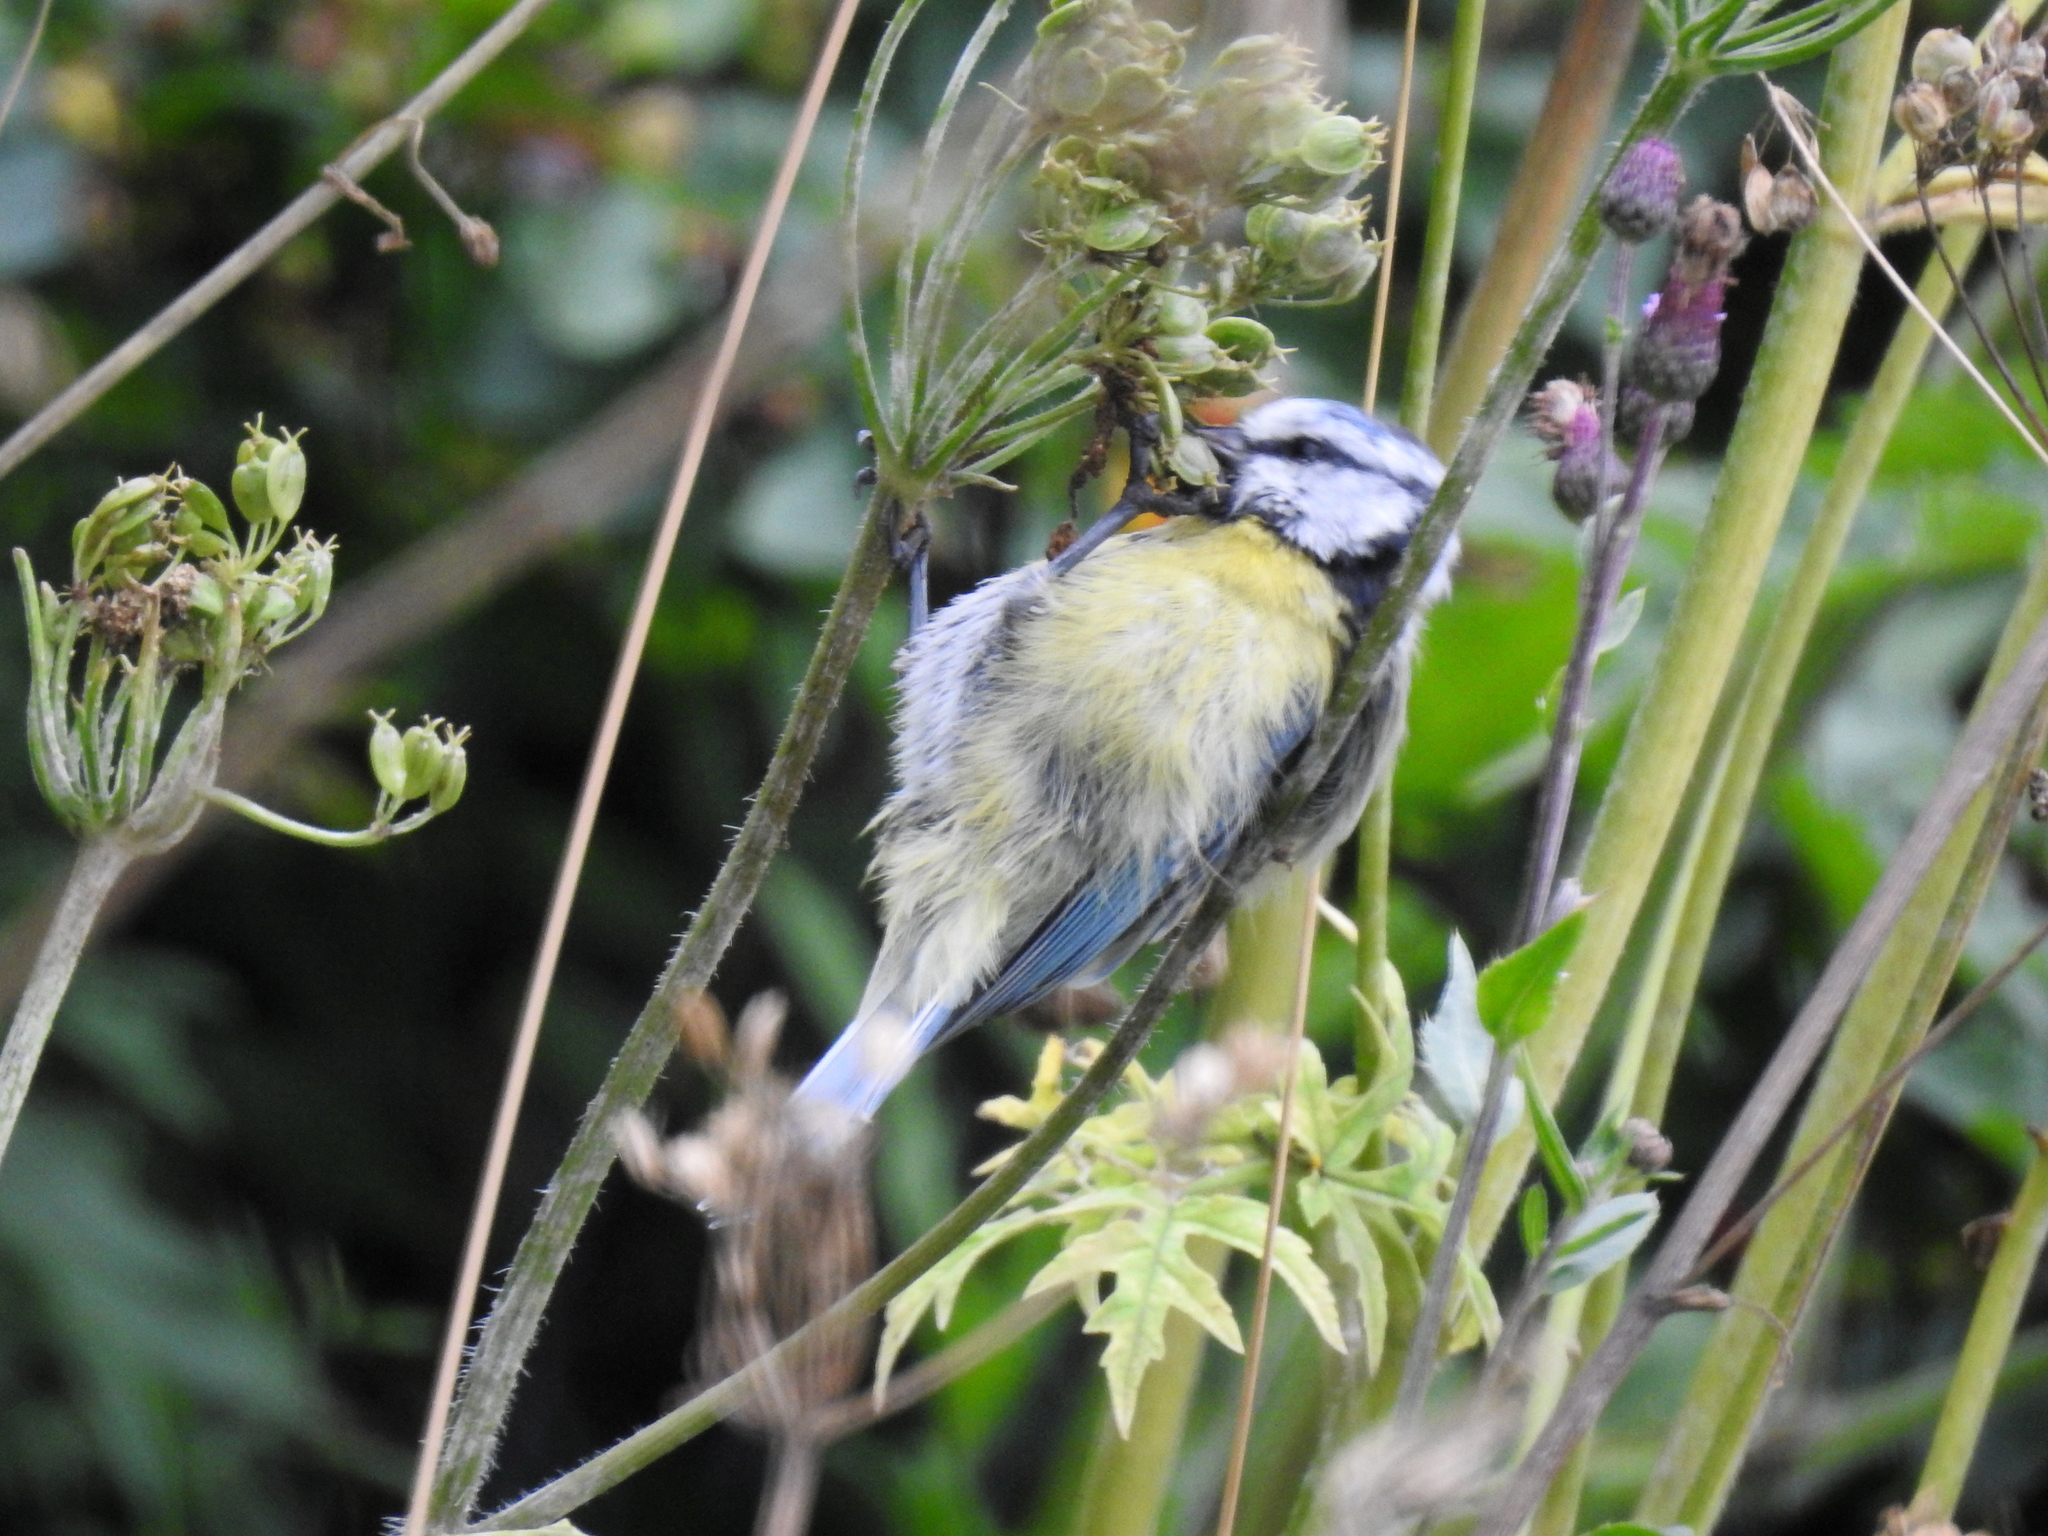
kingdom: Animalia
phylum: Chordata
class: Aves
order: Passeriformes
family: Paridae
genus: Cyanistes
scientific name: Cyanistes caeruleus
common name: Eurasian blue tit
